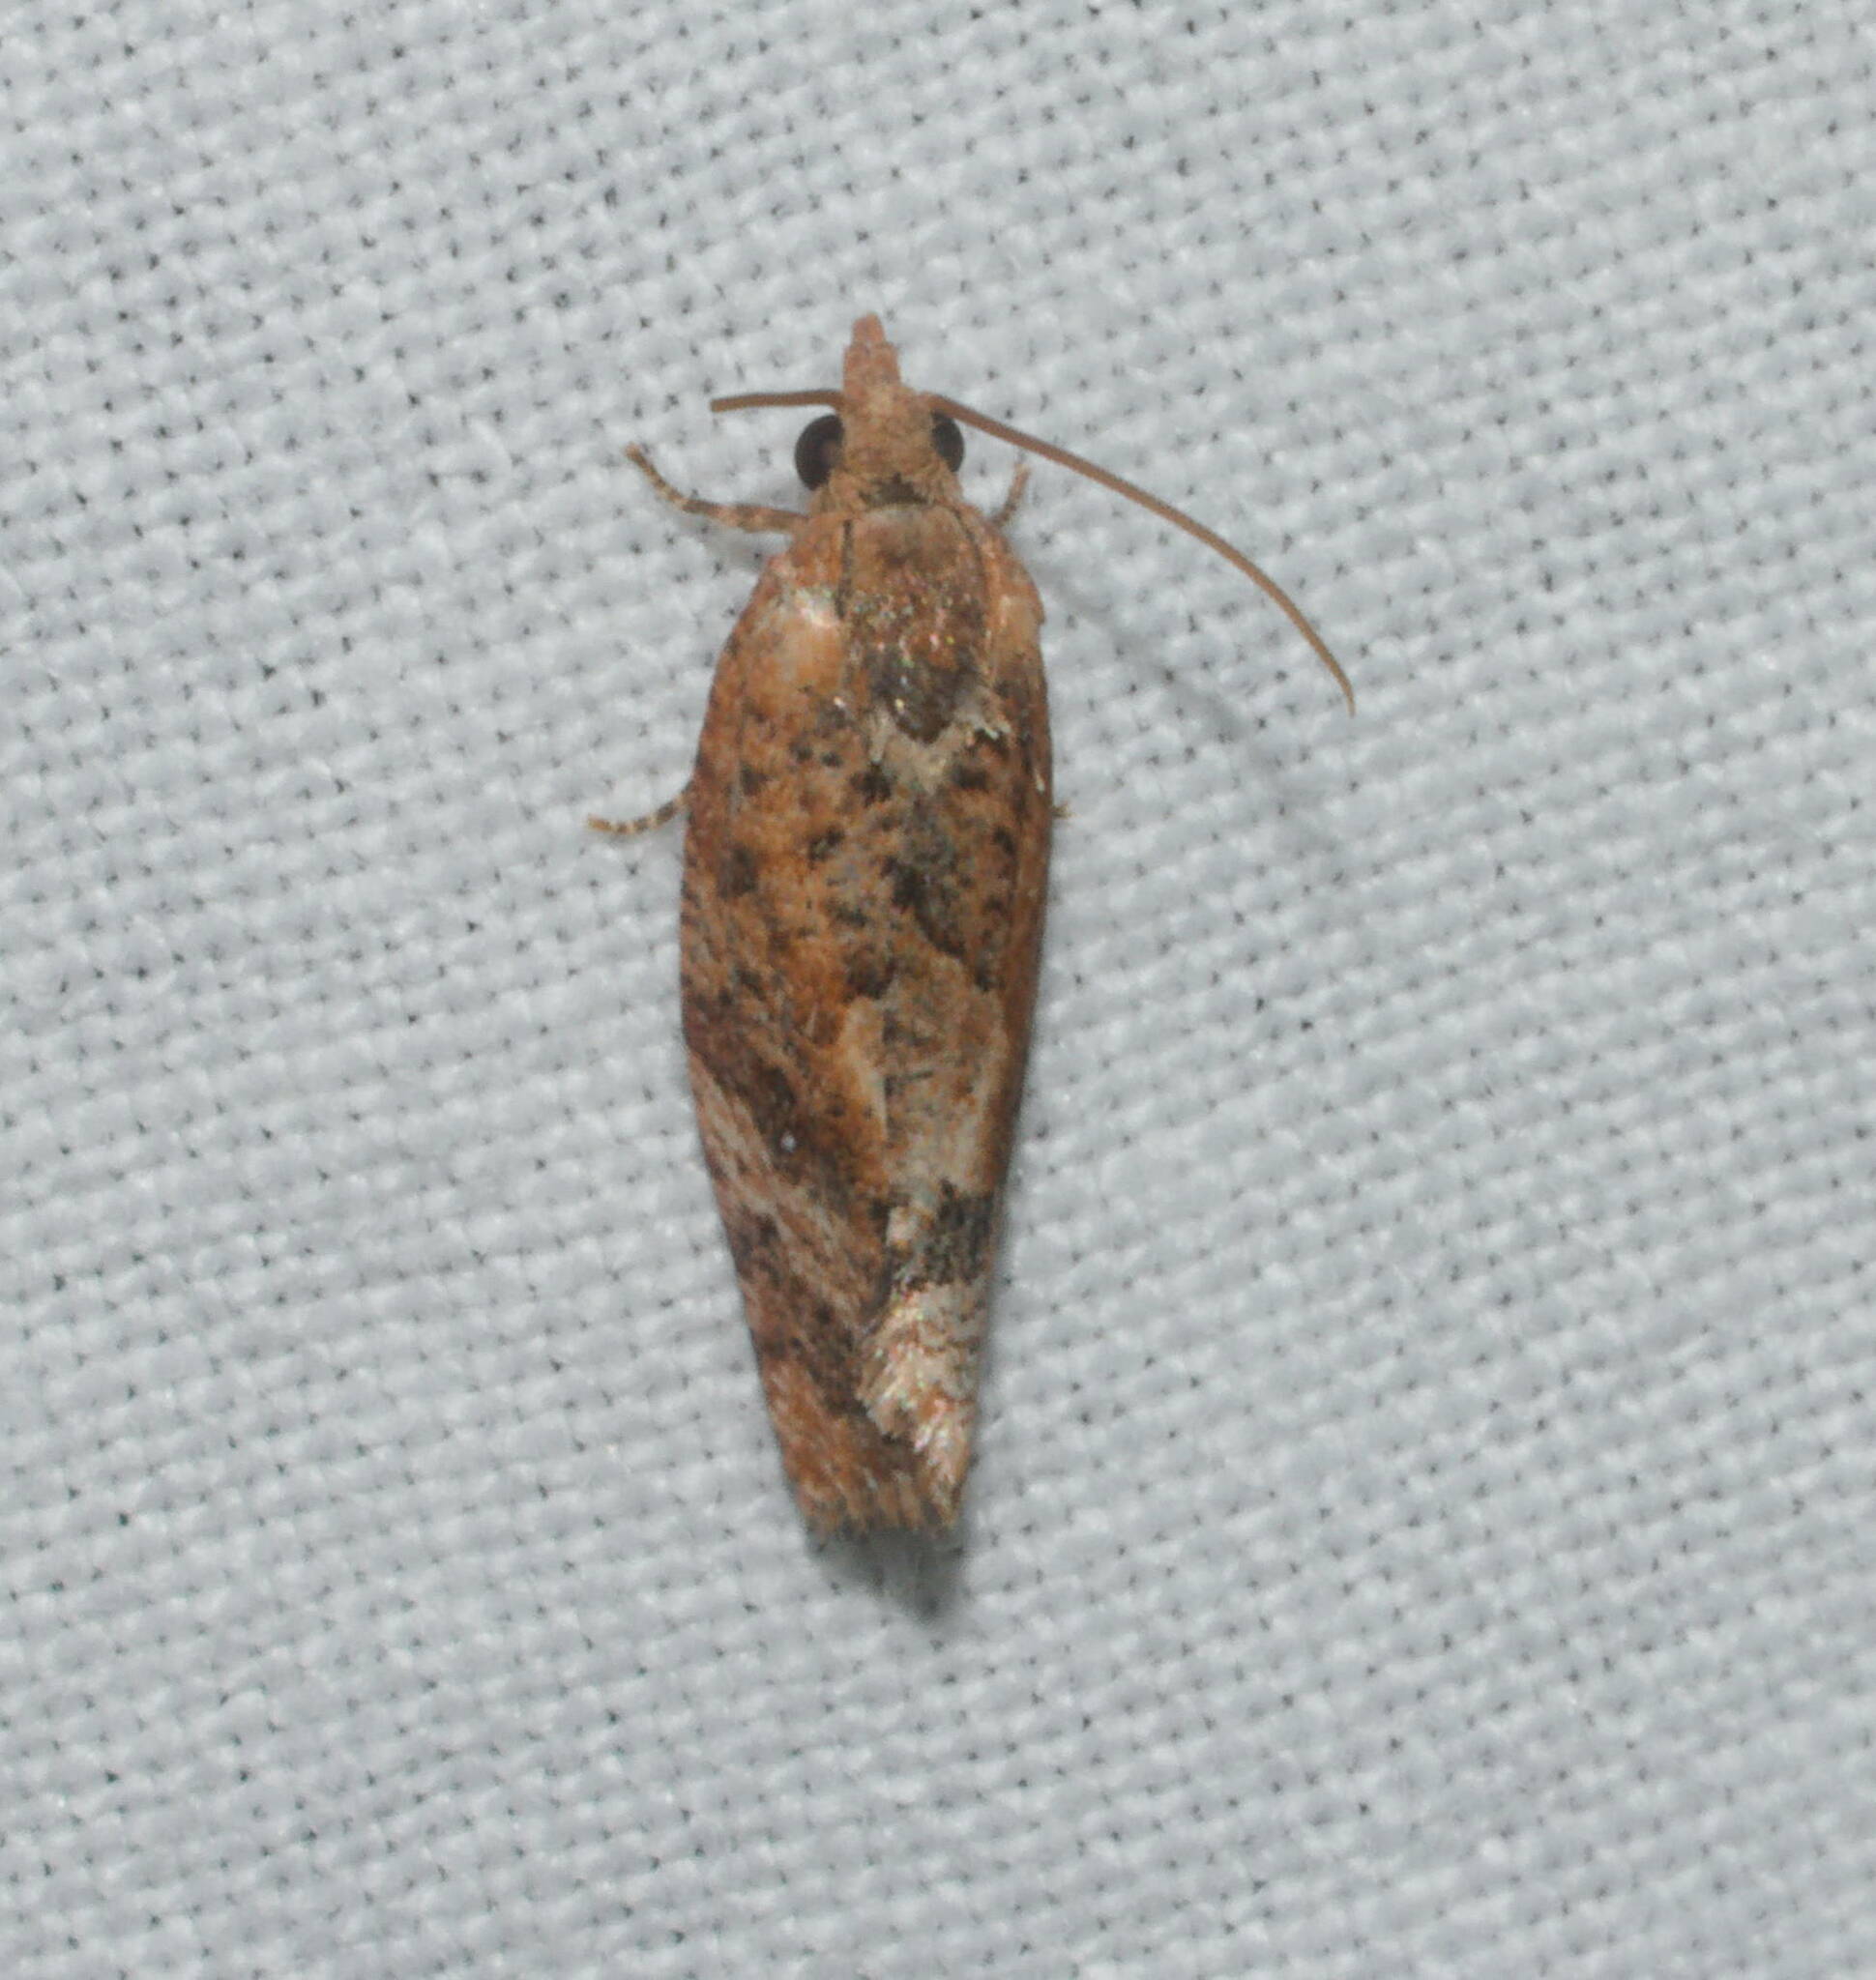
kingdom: Animalia
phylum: Arthropoda
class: Insecta
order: Lepidoptera
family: Tortricidae
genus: Cryptophlebia
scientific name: Cryptophlebia illepida
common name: Moth
